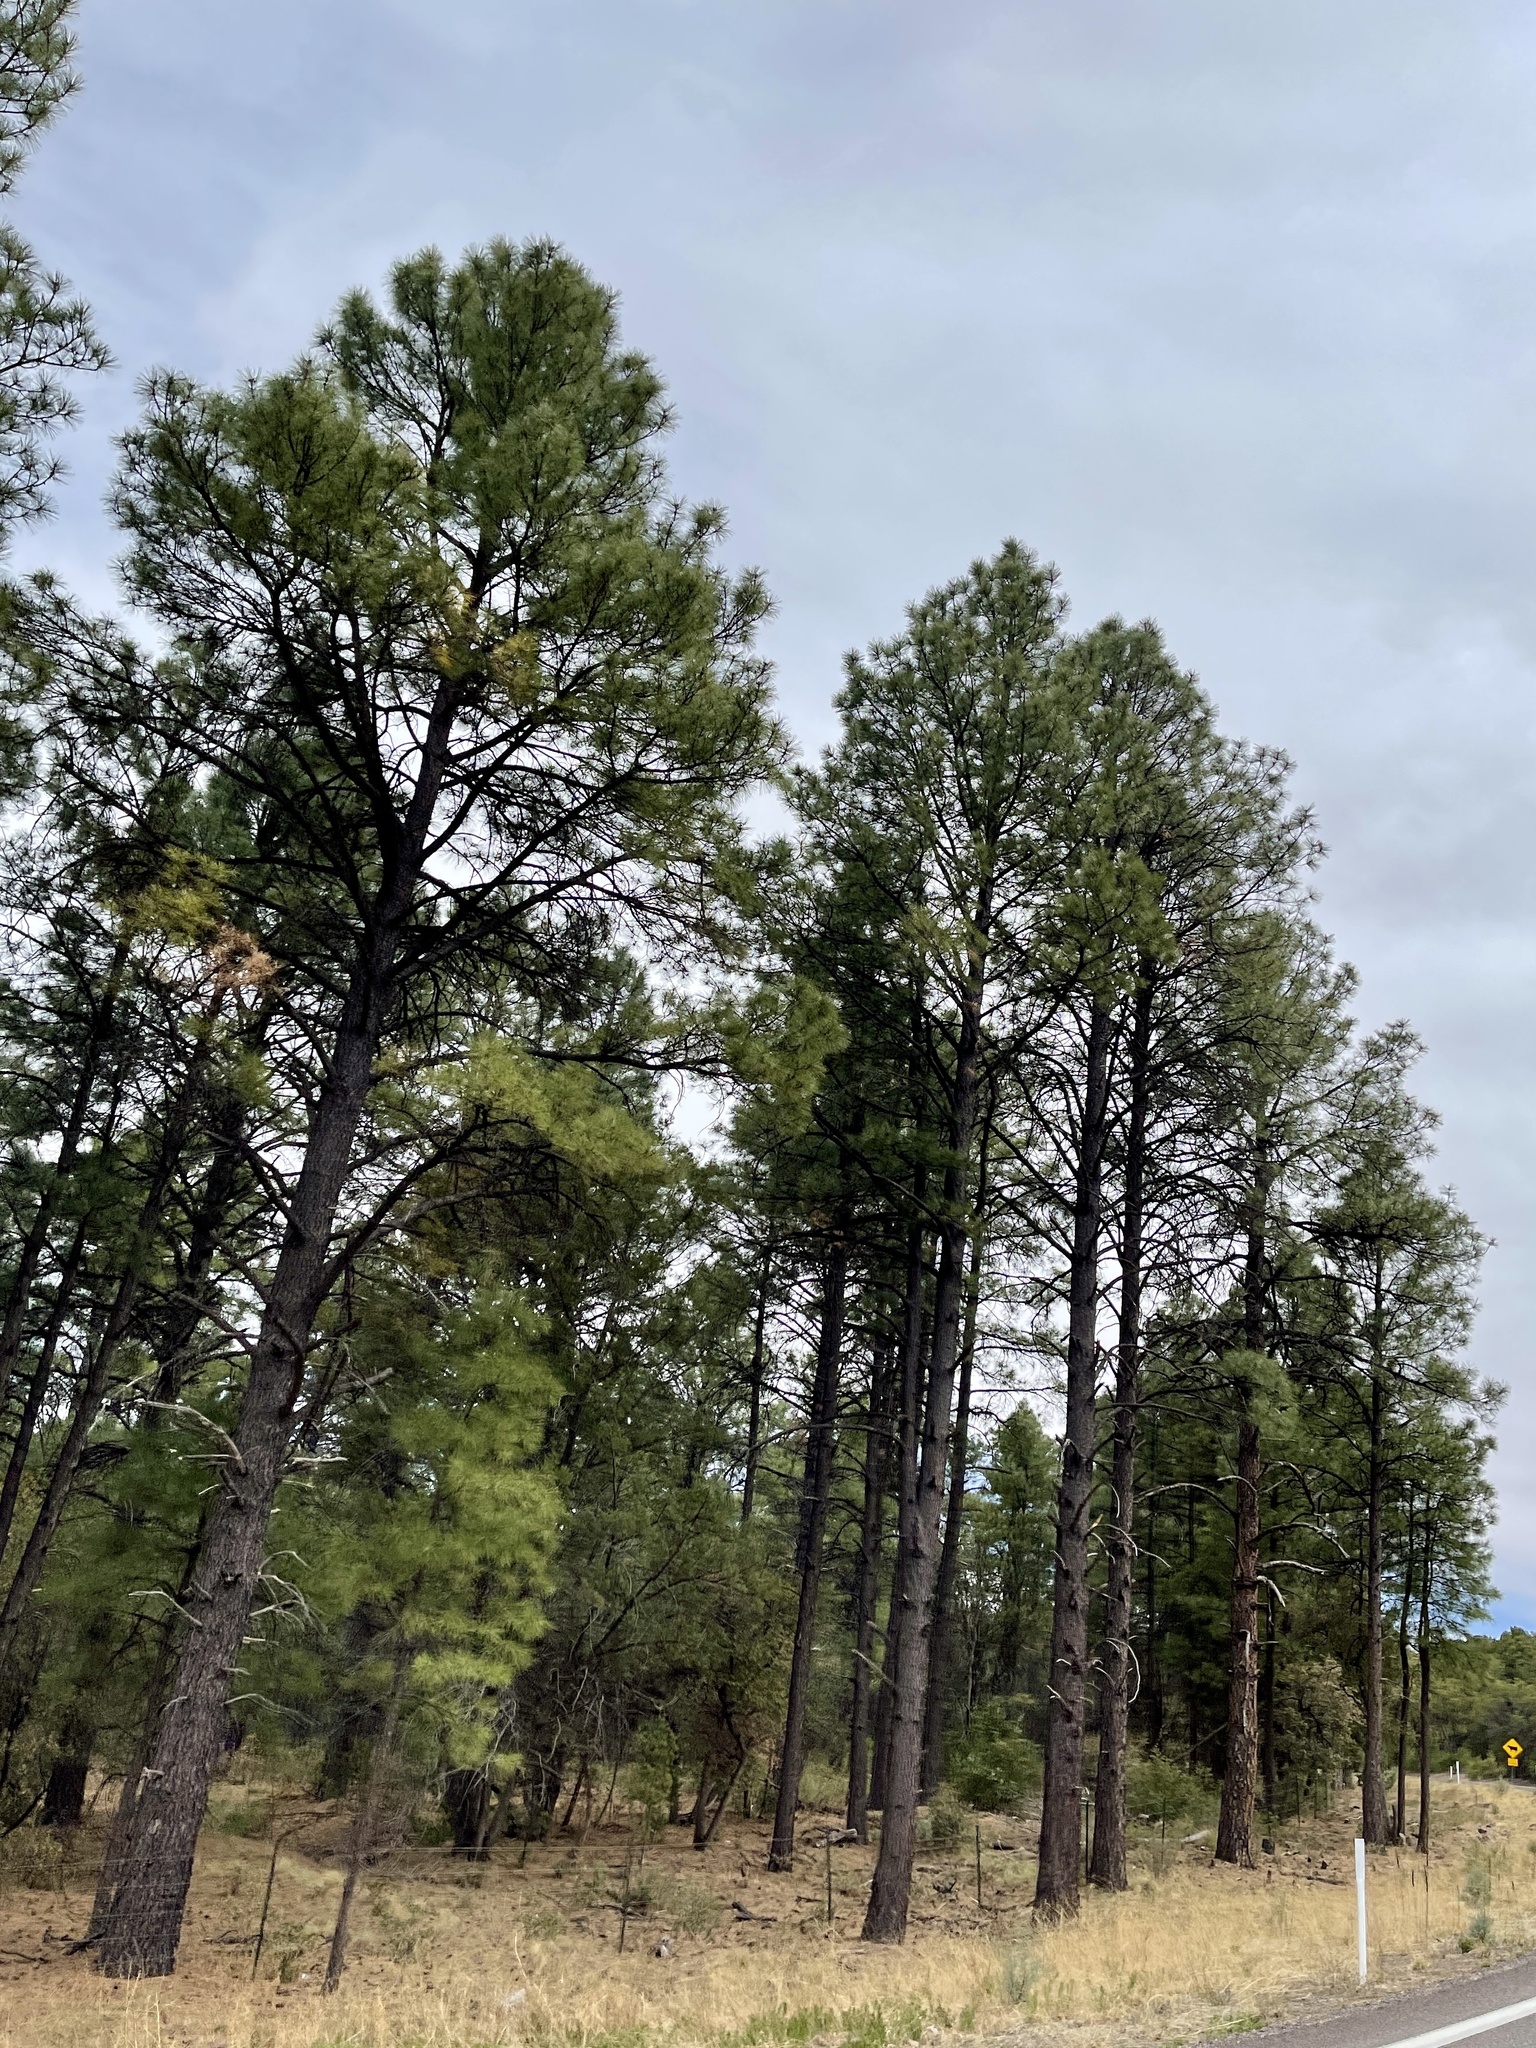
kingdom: Plantae
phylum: Tracheophyta
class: Pinopsida
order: Pinales
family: Pinaceae
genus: Pinus
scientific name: Pinus ponderosa
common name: Western yellow-pine
